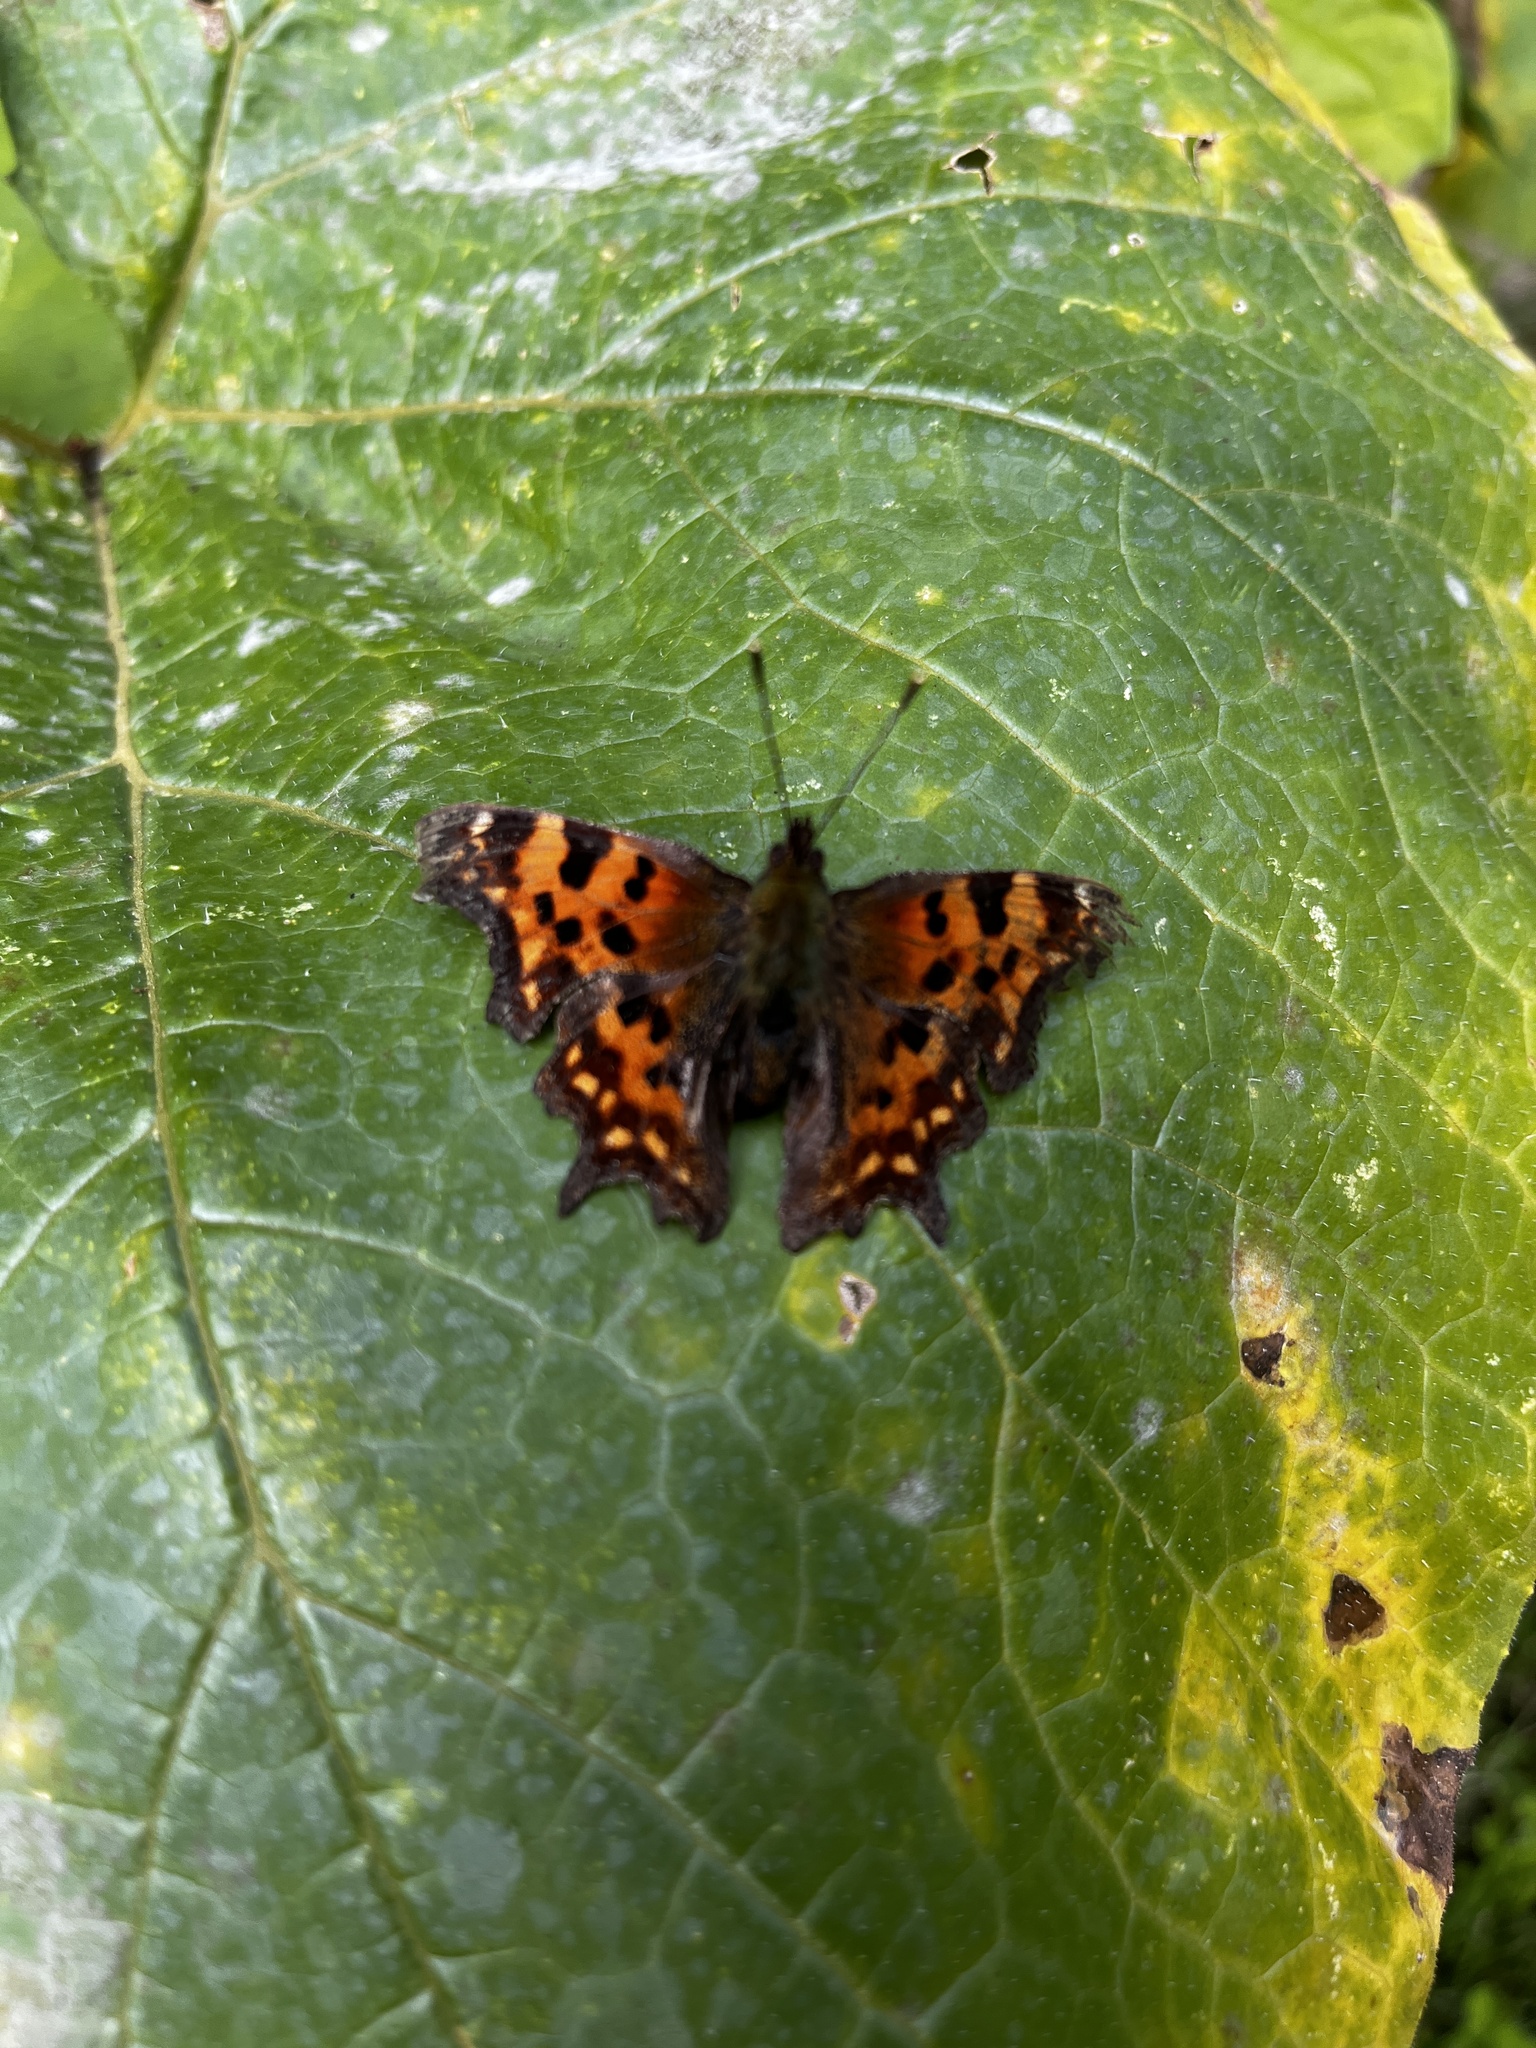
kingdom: Animalia
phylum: Arthropoda
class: Insecta
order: Lepidoptera
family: Nymphalidae
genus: Polygonia
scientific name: Polygonia c-album
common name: Comma
